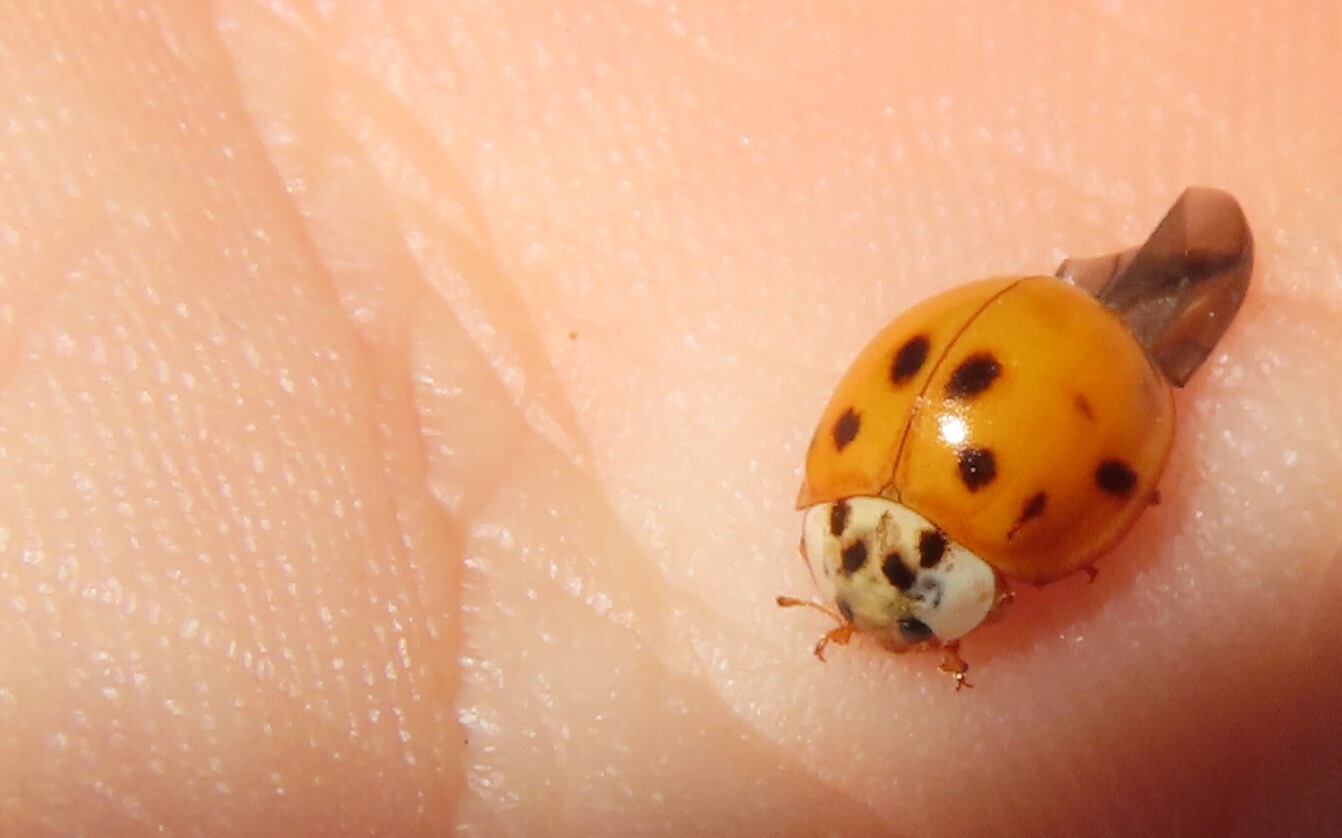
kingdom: Animalia
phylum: Arthropoda
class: Insecta
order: Coleoptera
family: Coccinellidae
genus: Harmonia
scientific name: Harmonia axyridis
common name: Harlequin ladybird
